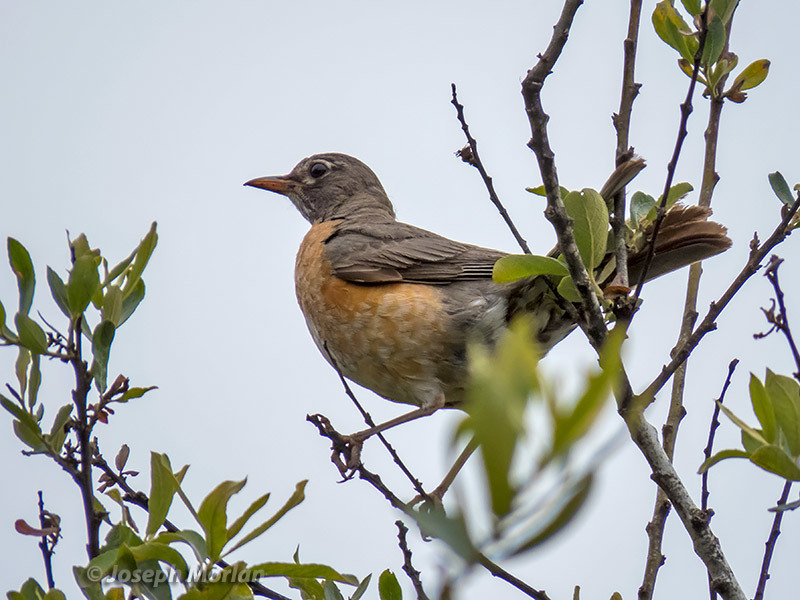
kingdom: Animalia
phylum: Chordata
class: Aves
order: Passeriformes
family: Turdidae
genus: Turdus
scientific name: Turdus migratorius
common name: American robin
